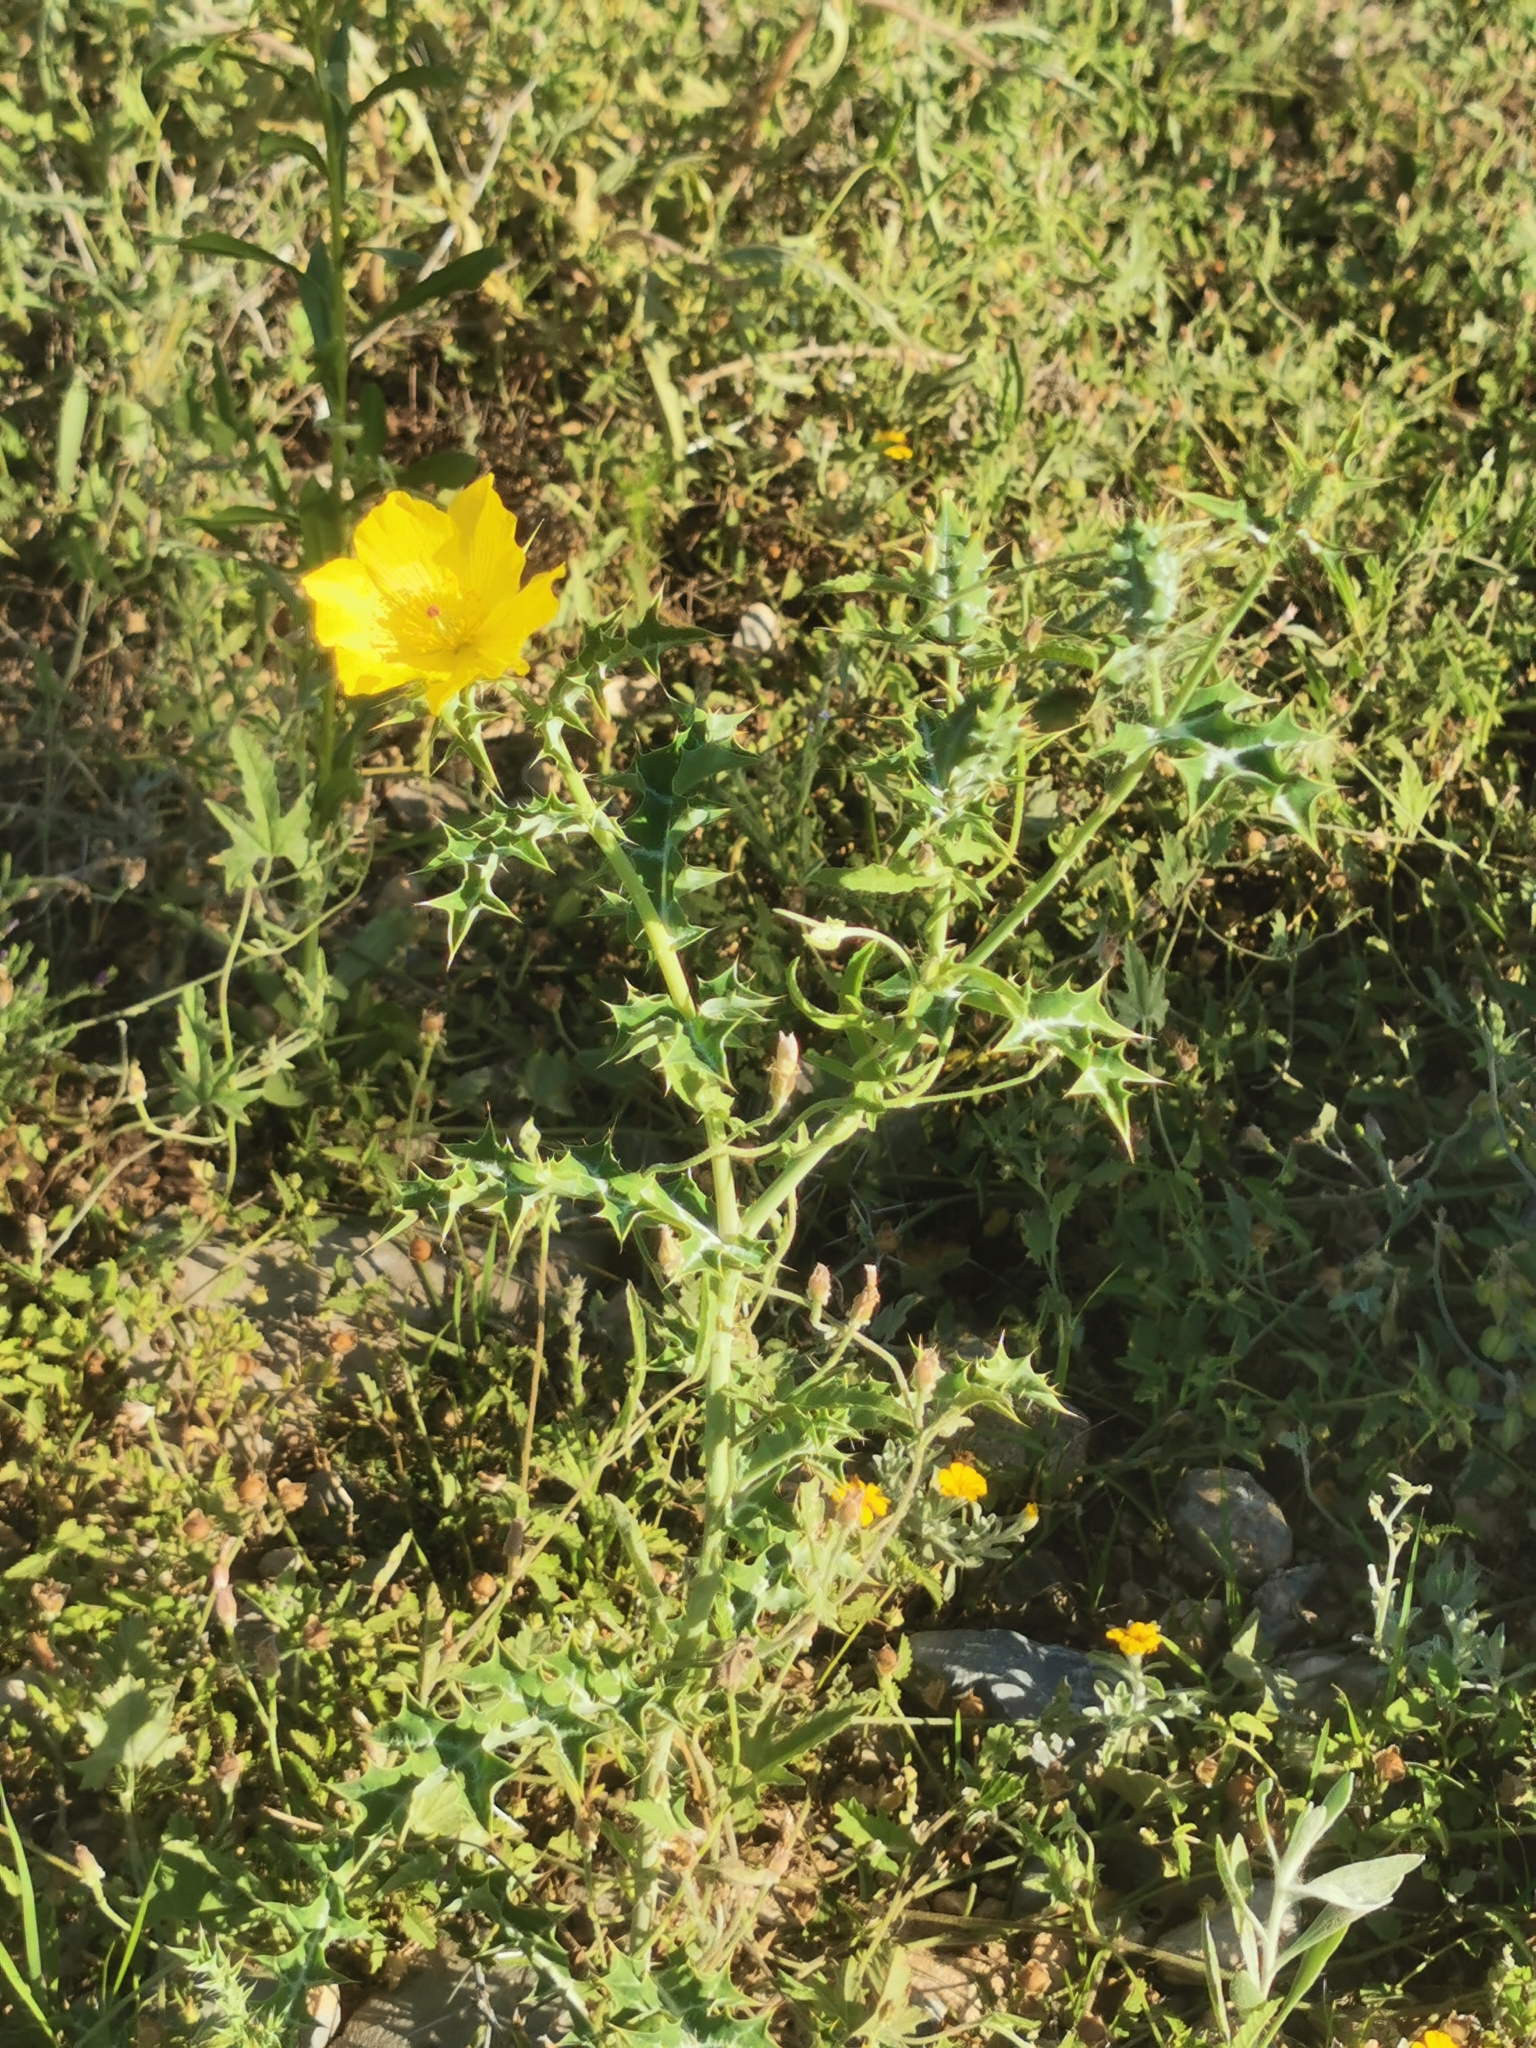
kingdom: Plantae
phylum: Tracheophyta
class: Magnoliopsida
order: Ranunculales
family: Papaveraceae
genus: Argemone
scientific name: Argemone mexicana
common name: Mexican poppy
